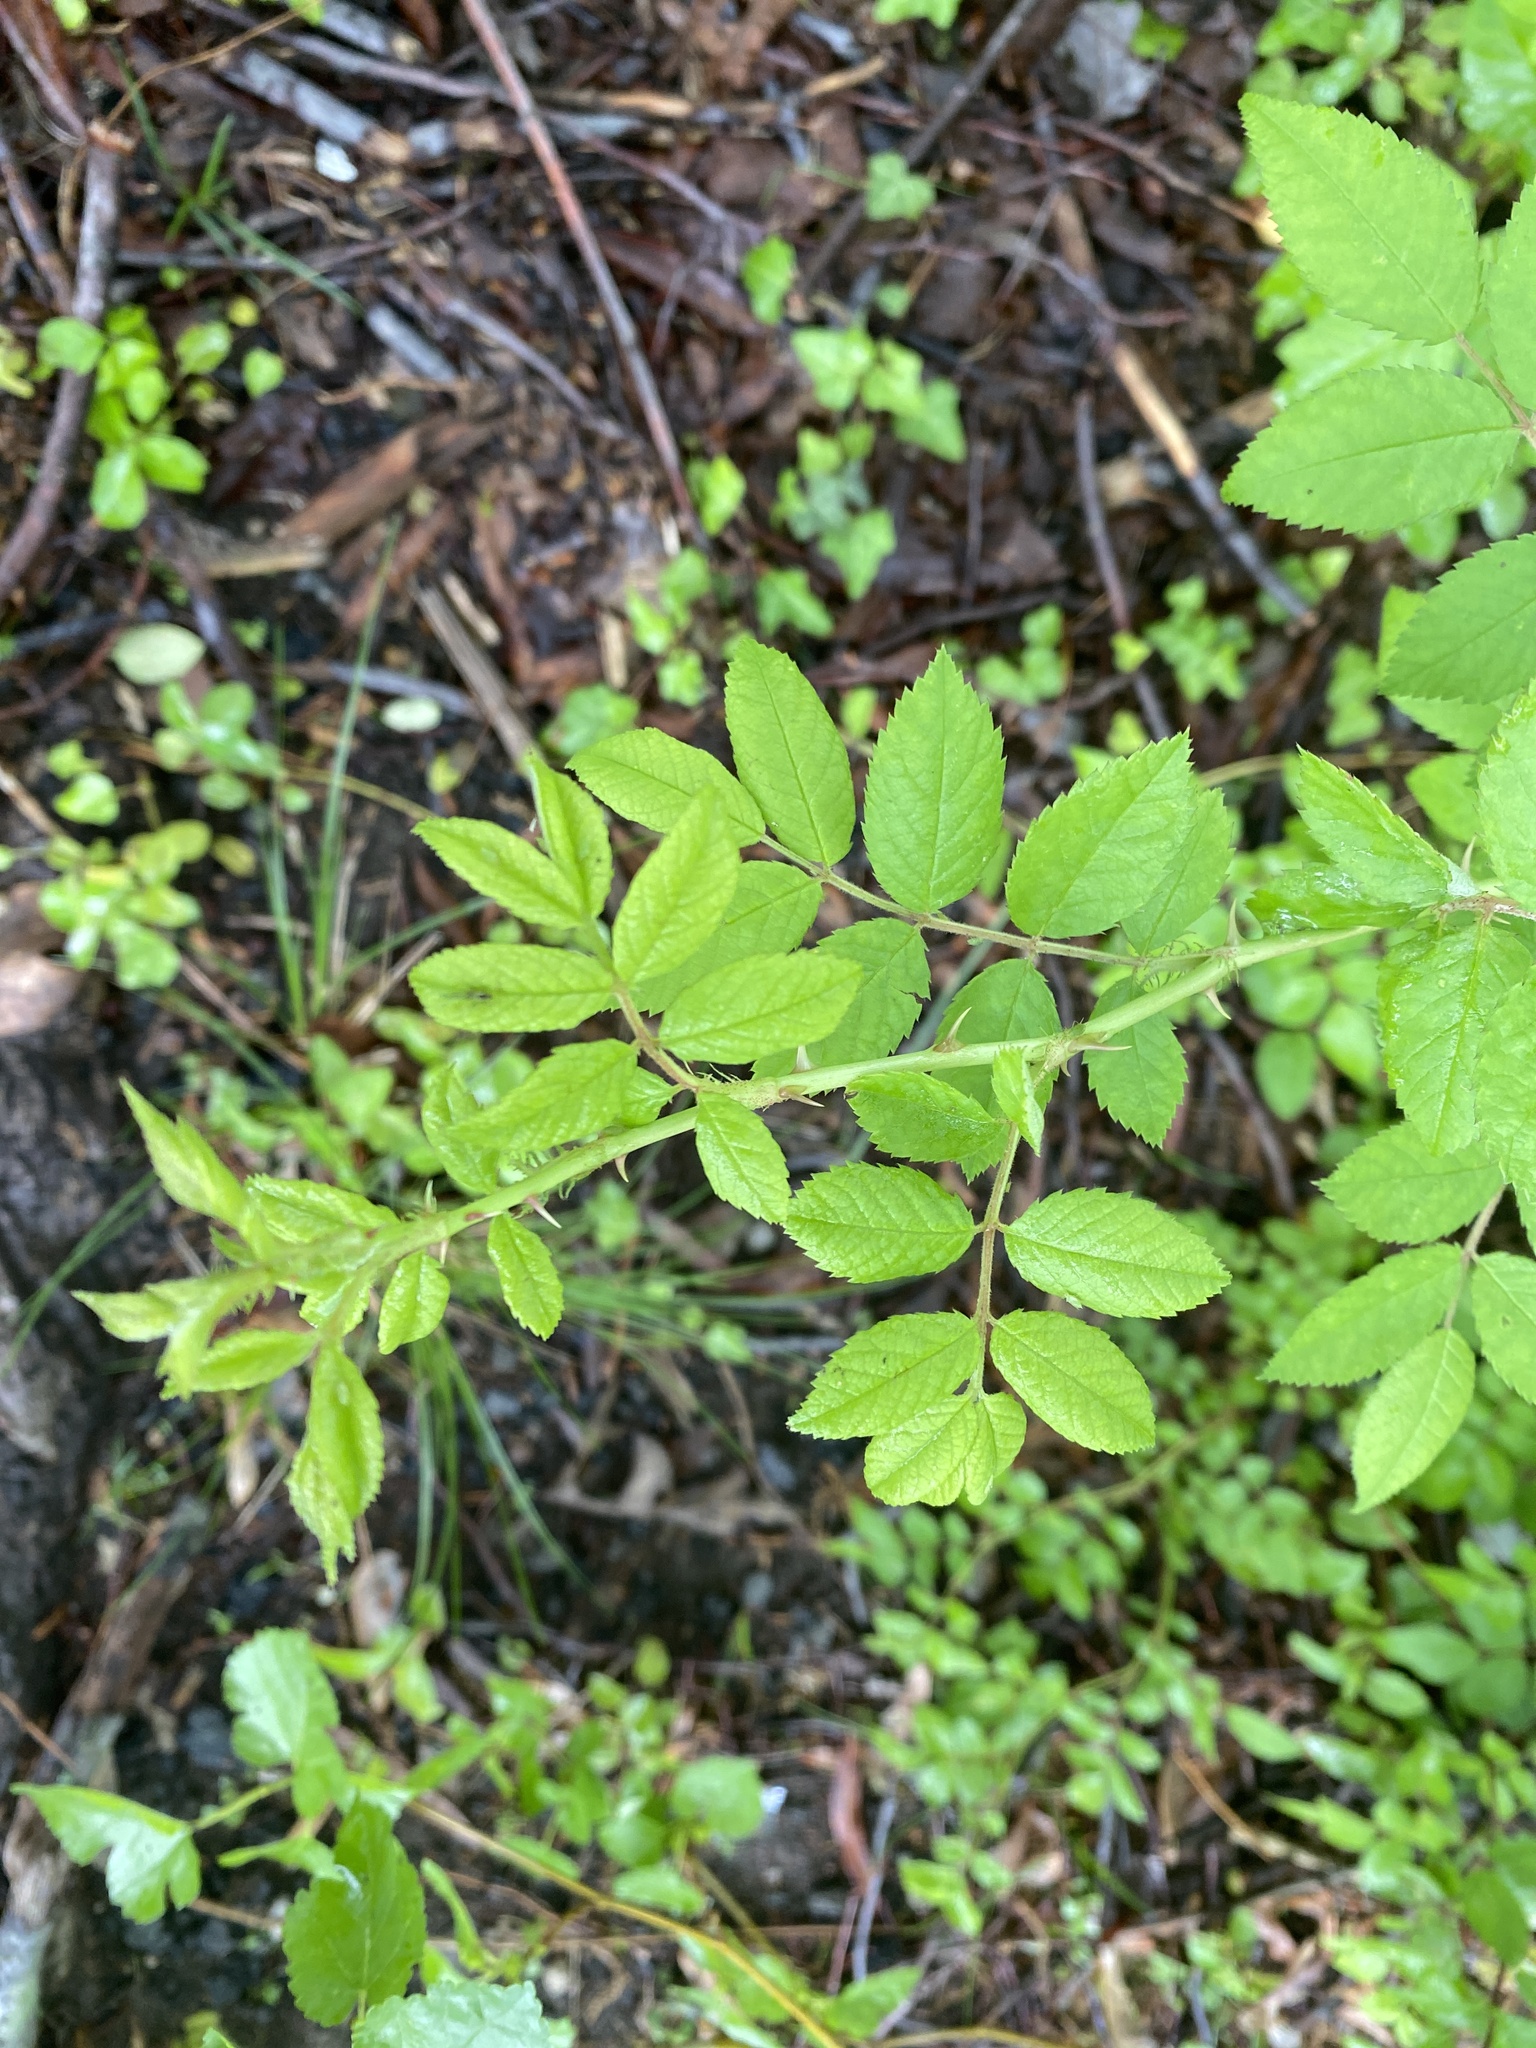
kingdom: Plantae
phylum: Tracheophyta
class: Magnoliopsida
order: Rosales
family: Rosaceae
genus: Rosa
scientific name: Rosa multiflora
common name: Multiflora rose
